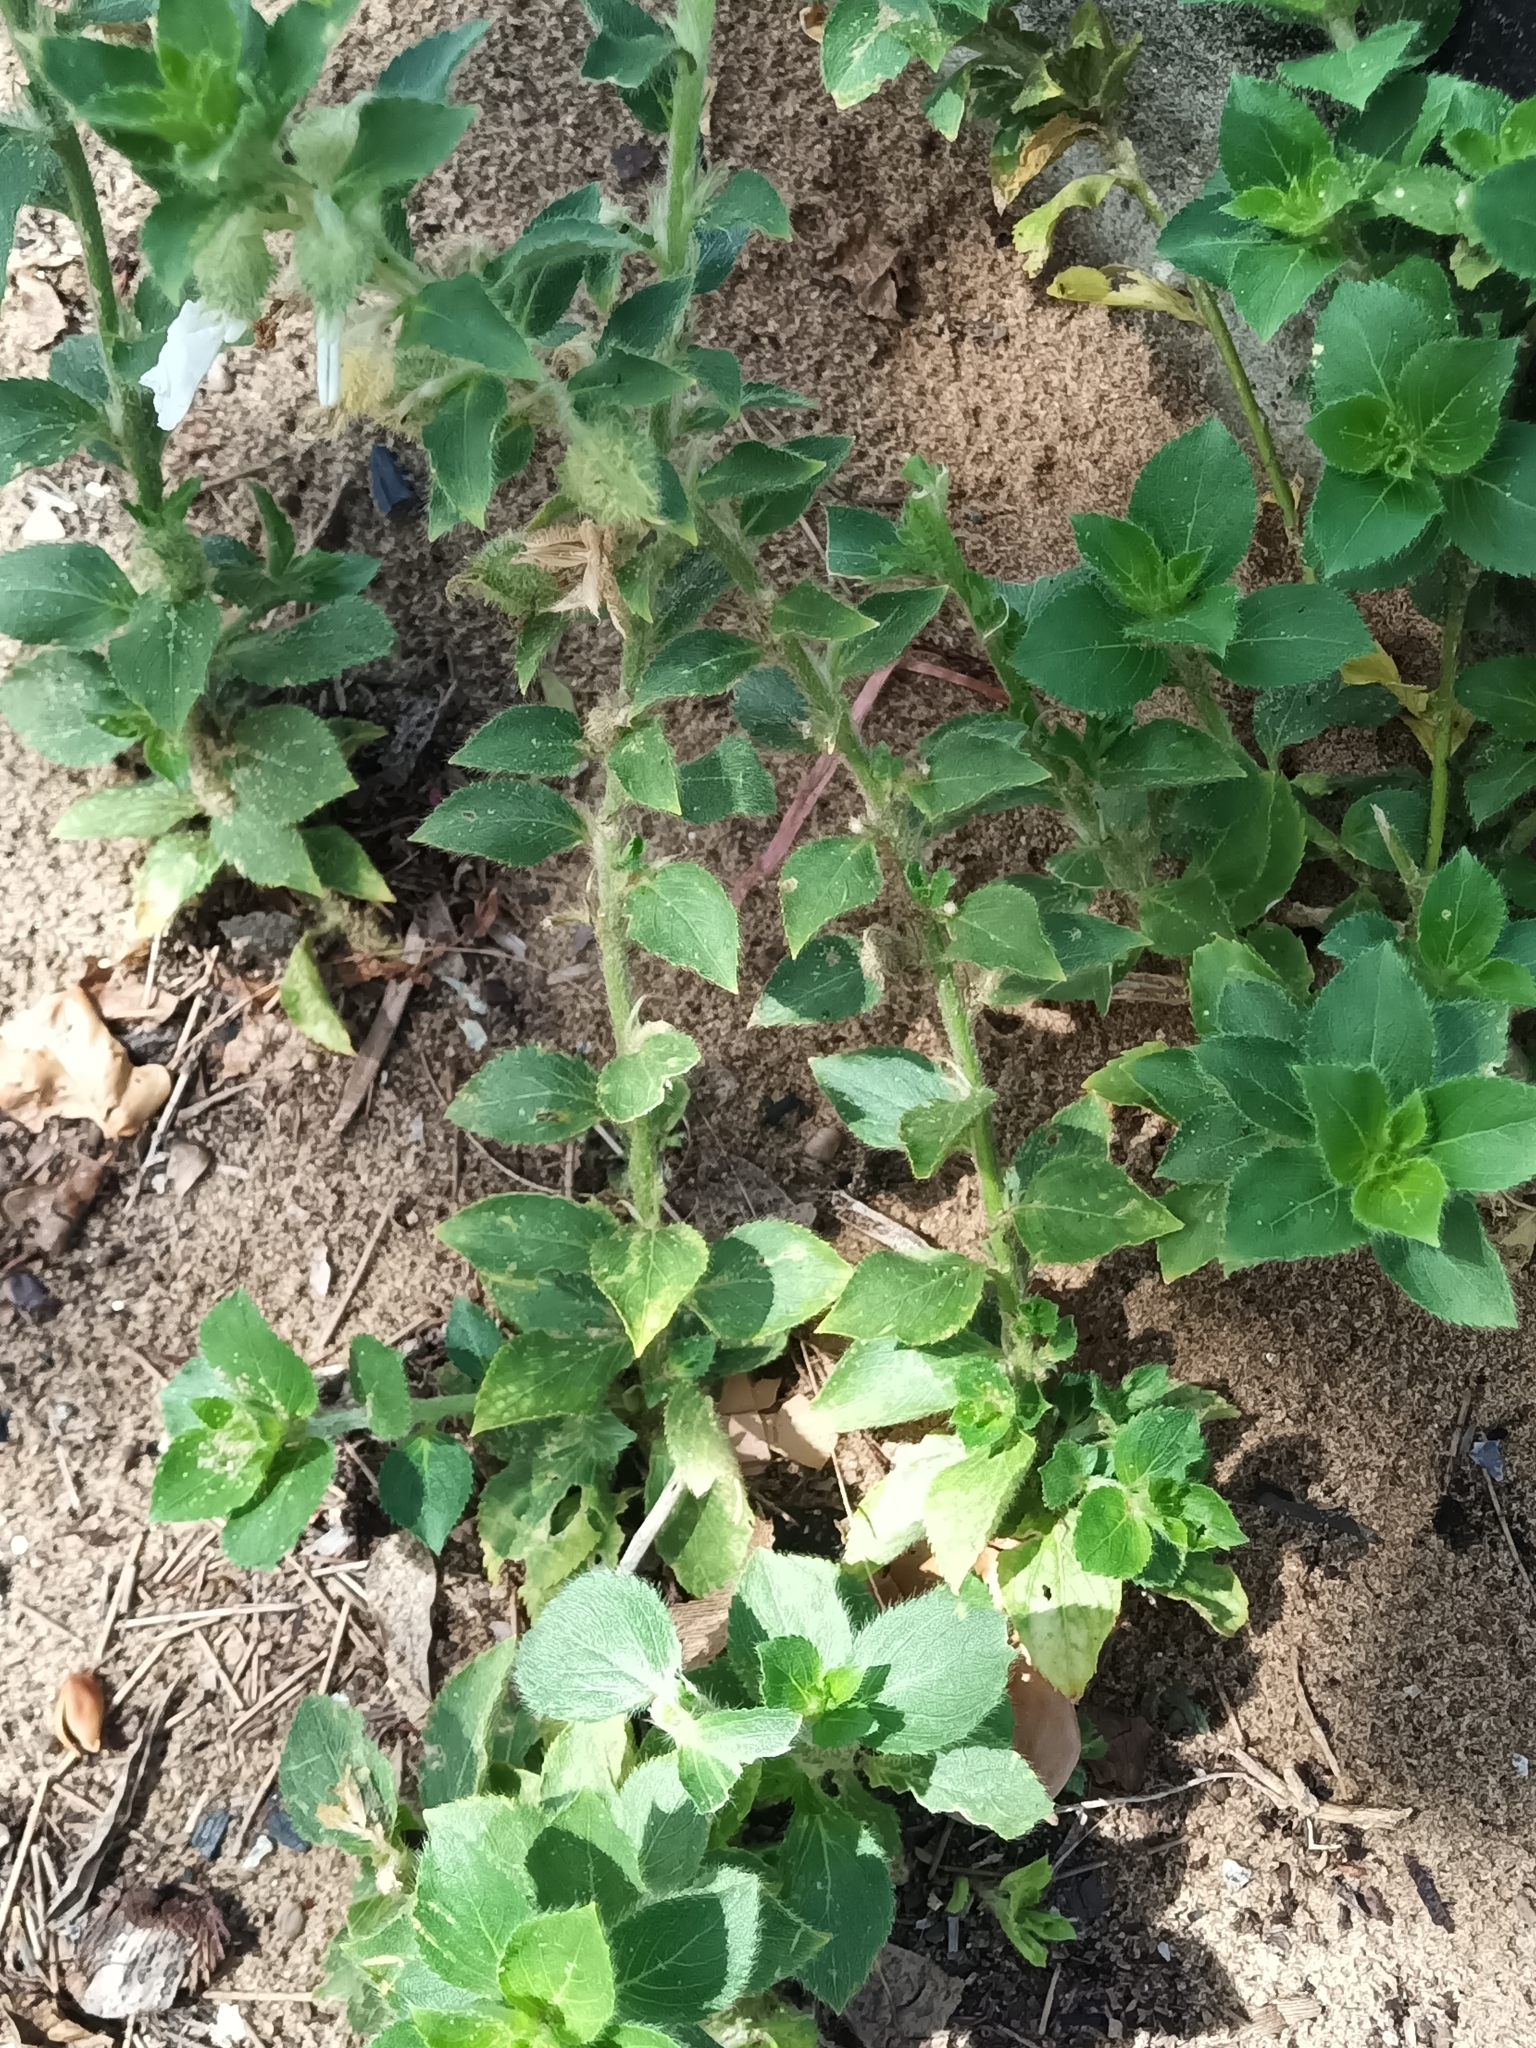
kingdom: Plantae
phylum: Tracheophyta
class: Magnoliopsida
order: Malpighiales
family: Violaceae
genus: Pombalia
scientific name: Pombalia calceolaria
